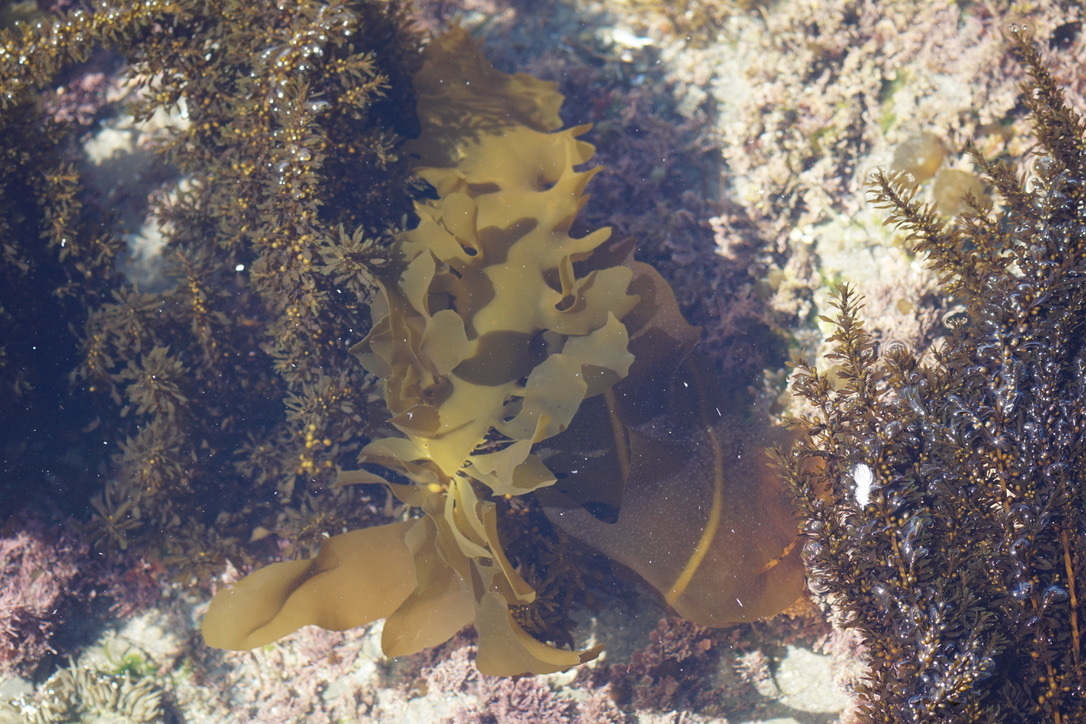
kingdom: Chromista
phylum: Ochrophyta
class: Phaeophyceae
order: Laminariales
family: Alariaceae
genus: Undaria
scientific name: Undaria pinnatifida
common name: Asian kelp
